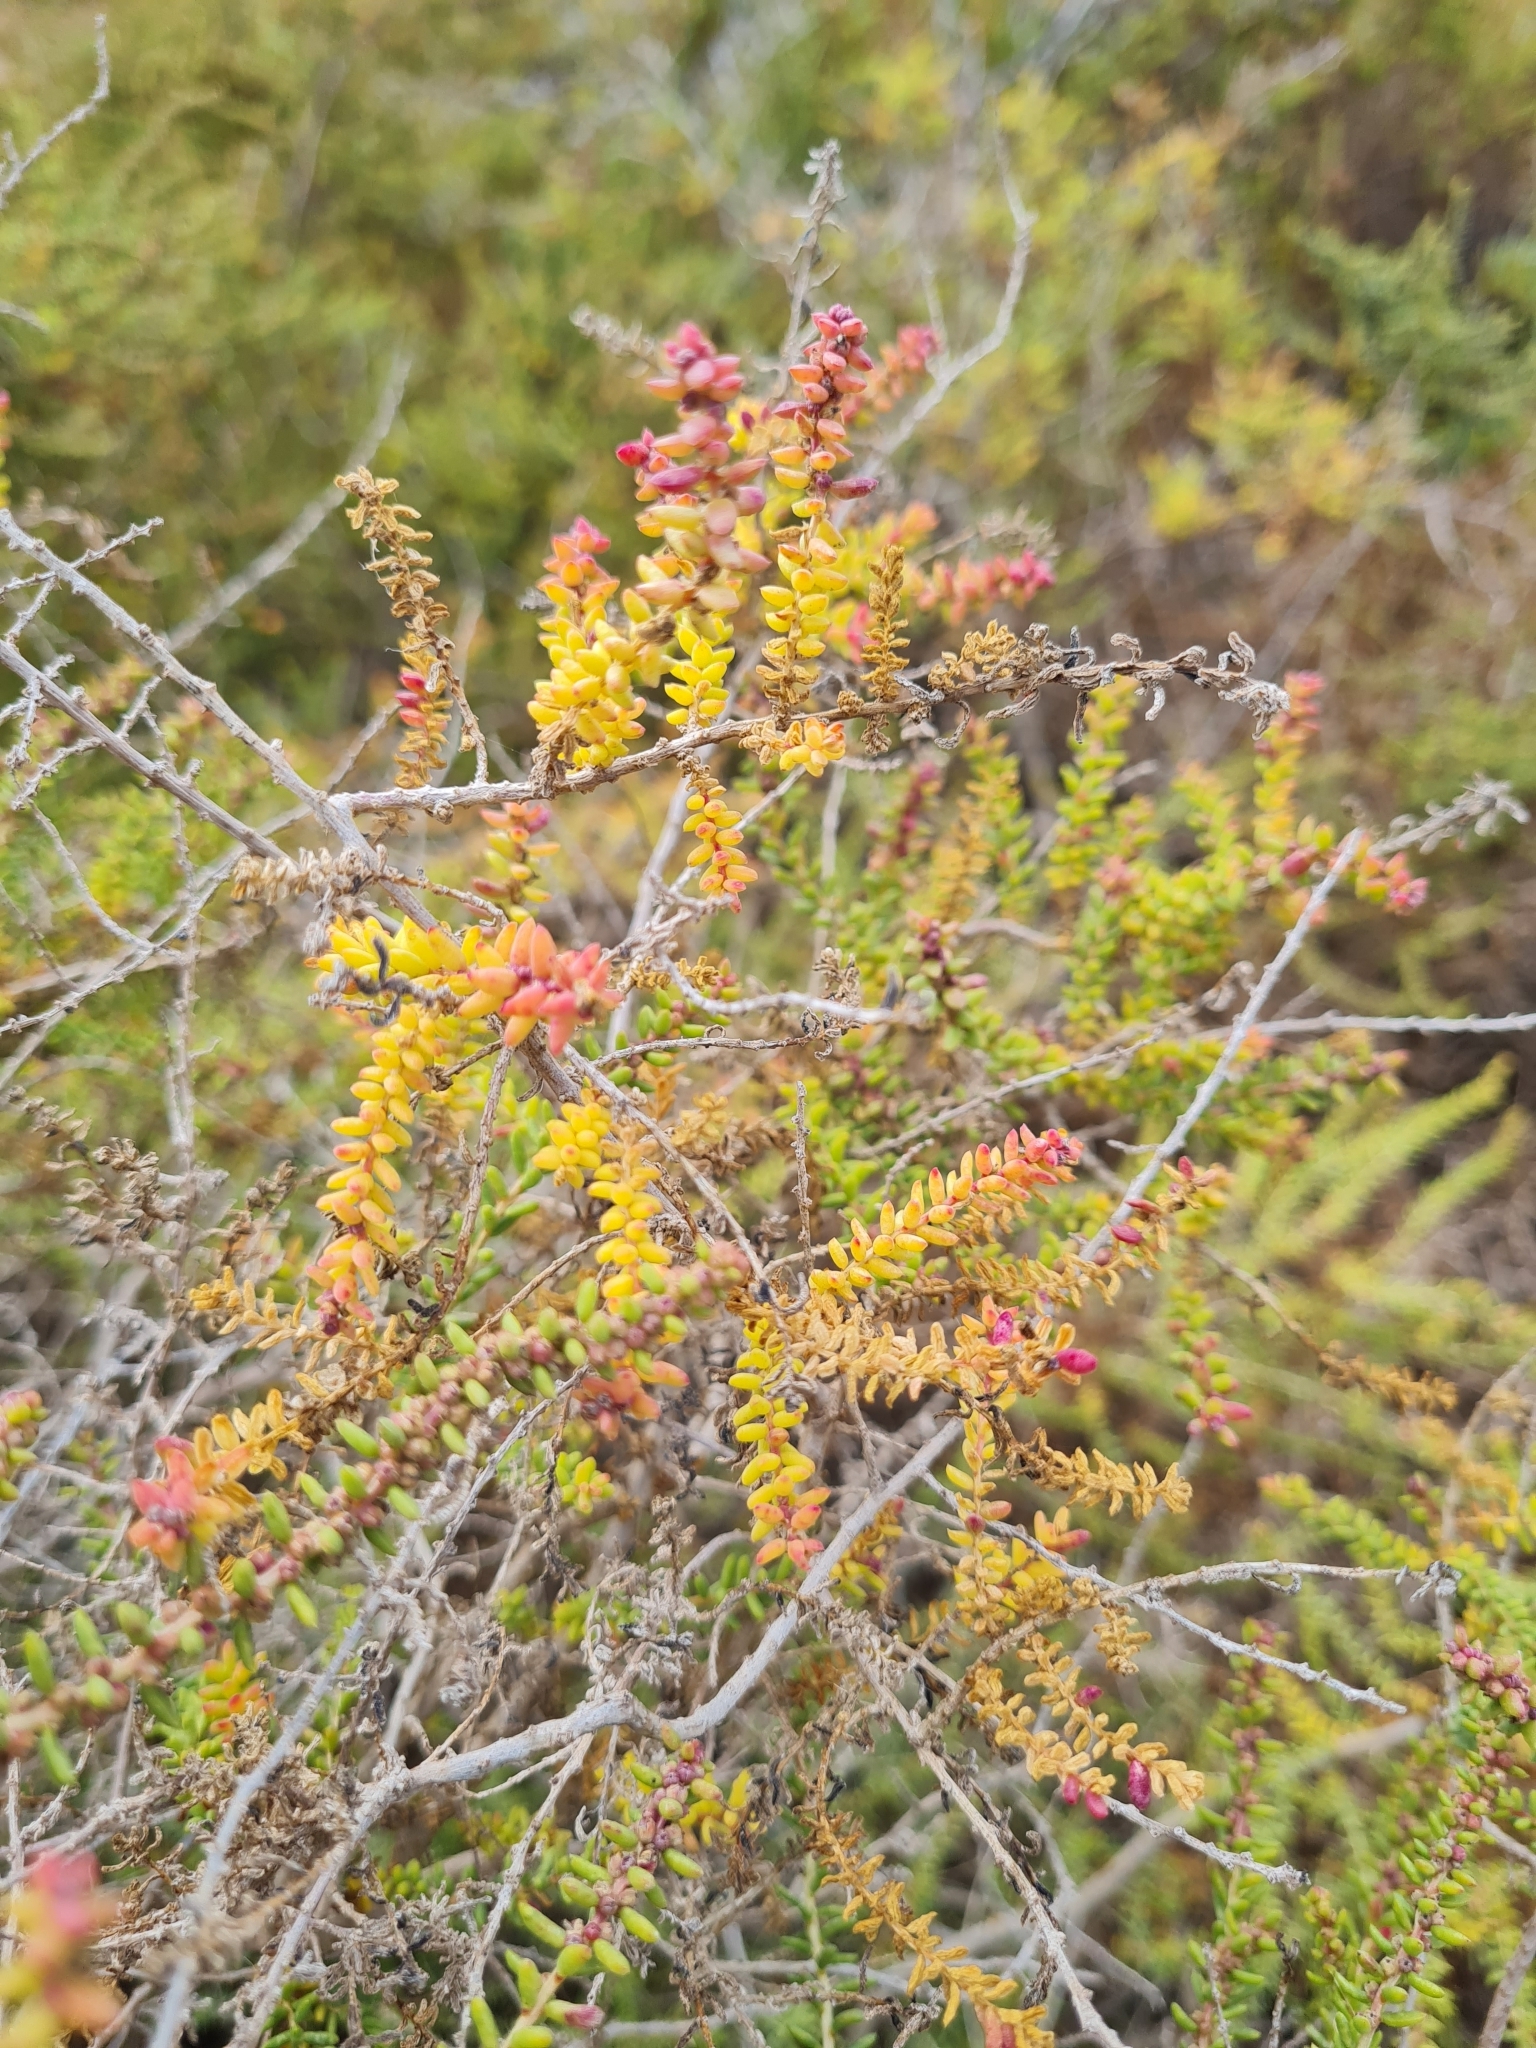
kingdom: Plantae
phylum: Tracheophyta
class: Magnoliopsida
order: Caryophyllales
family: Amaranthaceae
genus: Suaeda
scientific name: Suaeda vera
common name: Shrubby sea-blite
